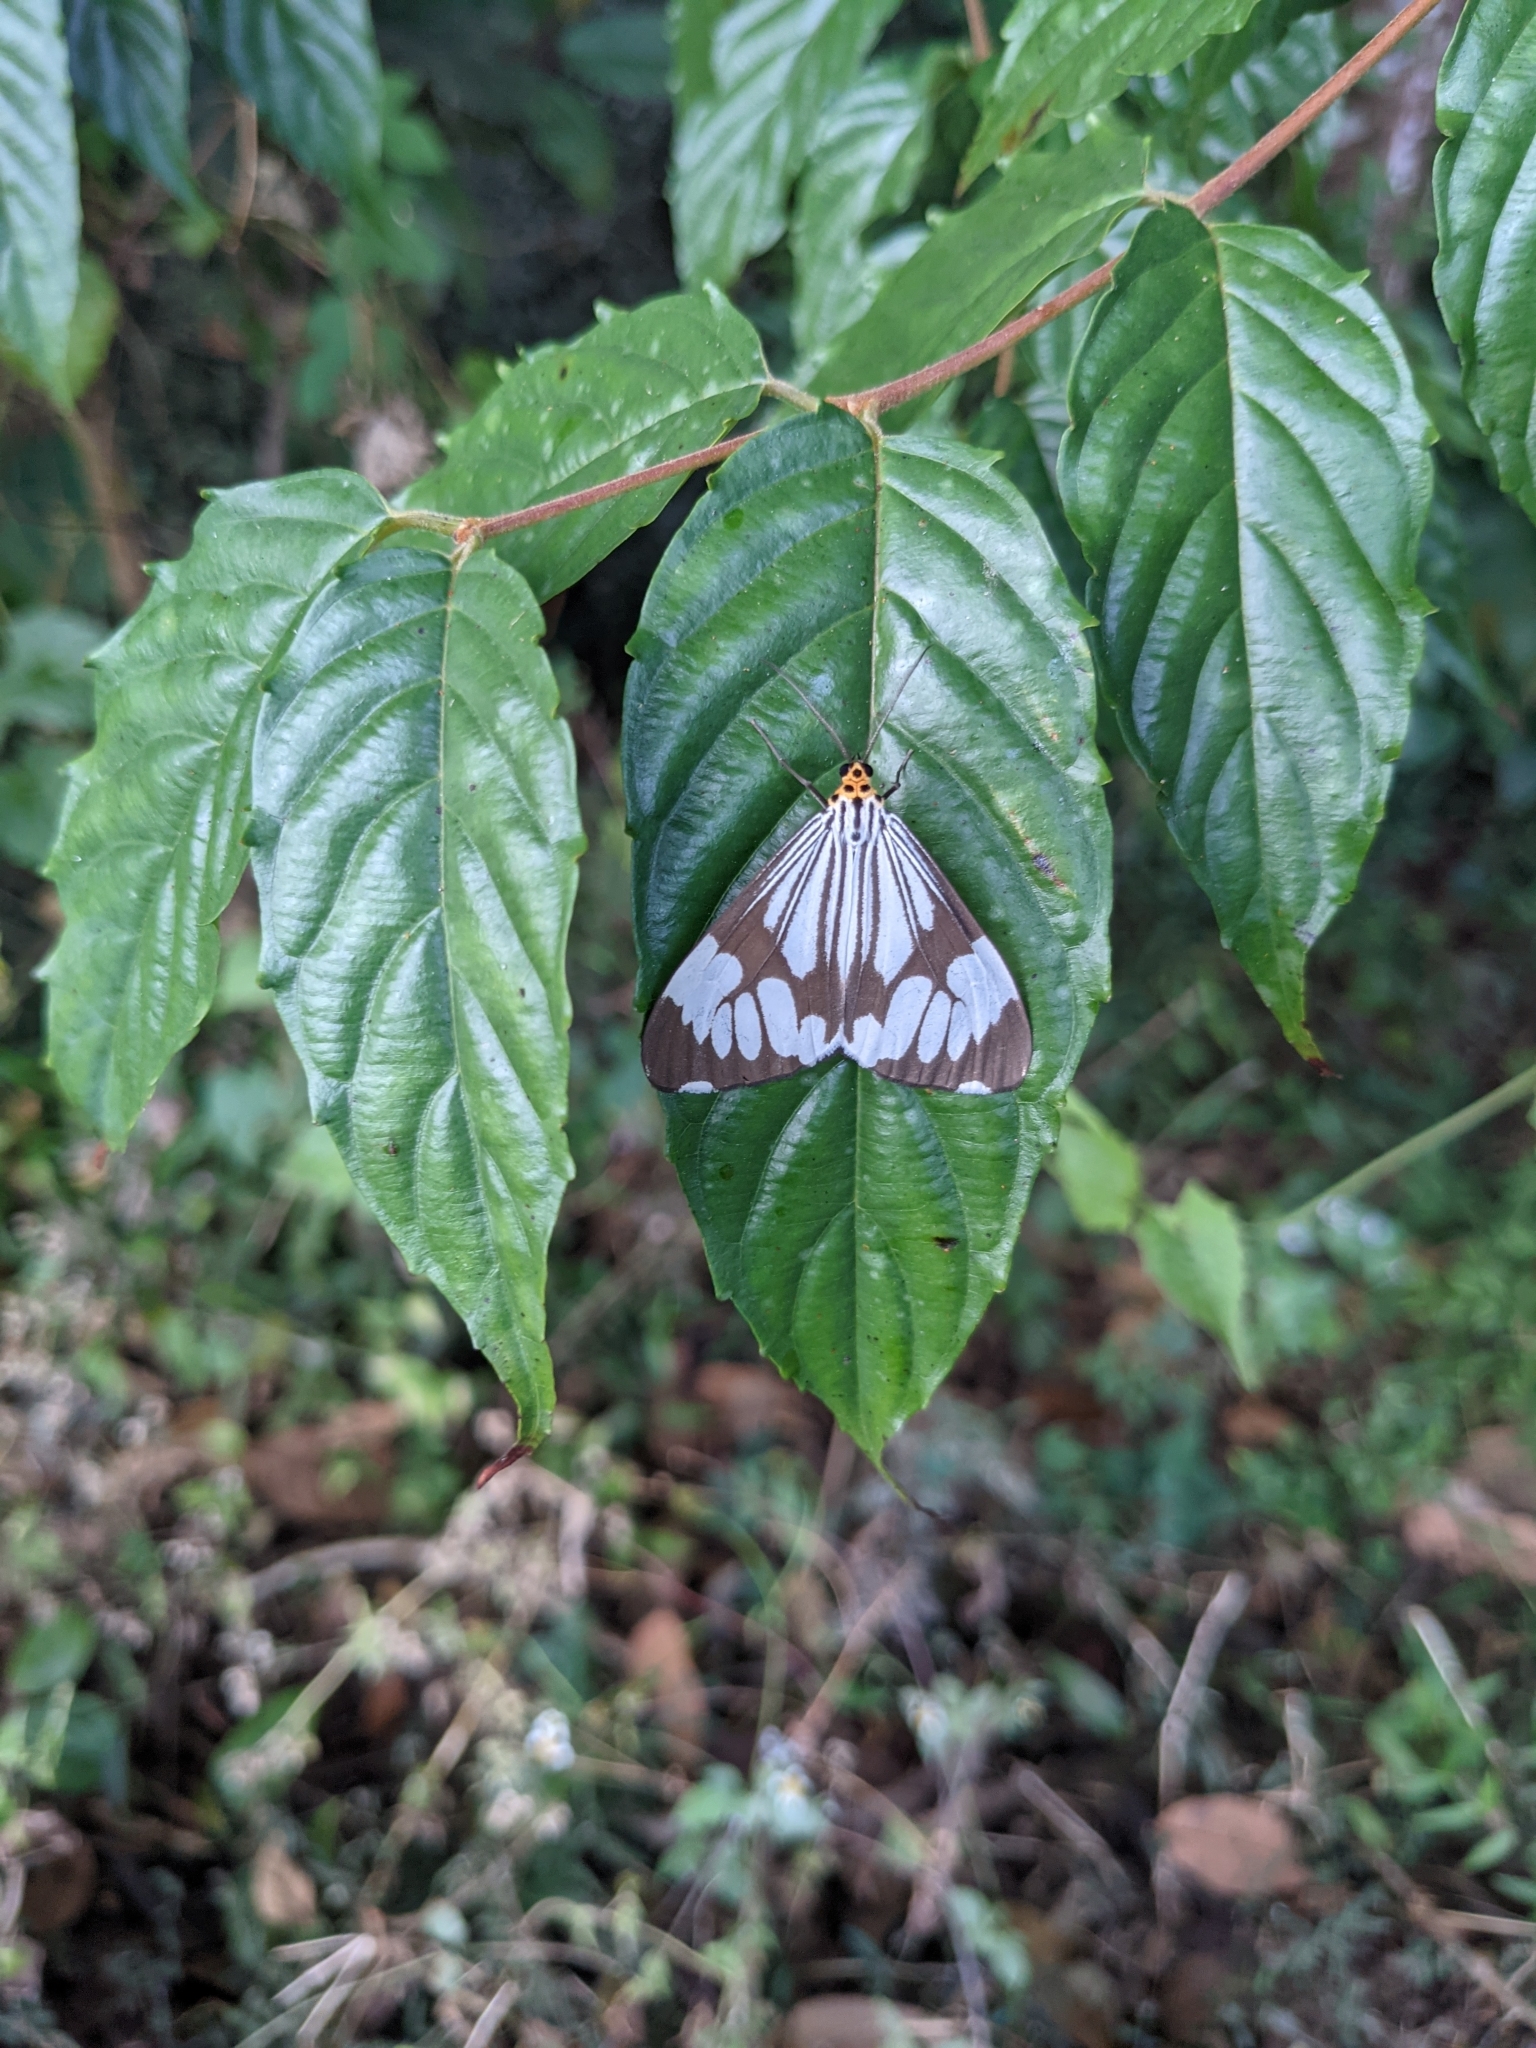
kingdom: Animalia
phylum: Arthropoda
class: Insecta
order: Lepidoptera
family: Erebidae
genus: Nyctemera
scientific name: Nyctemera coleta
